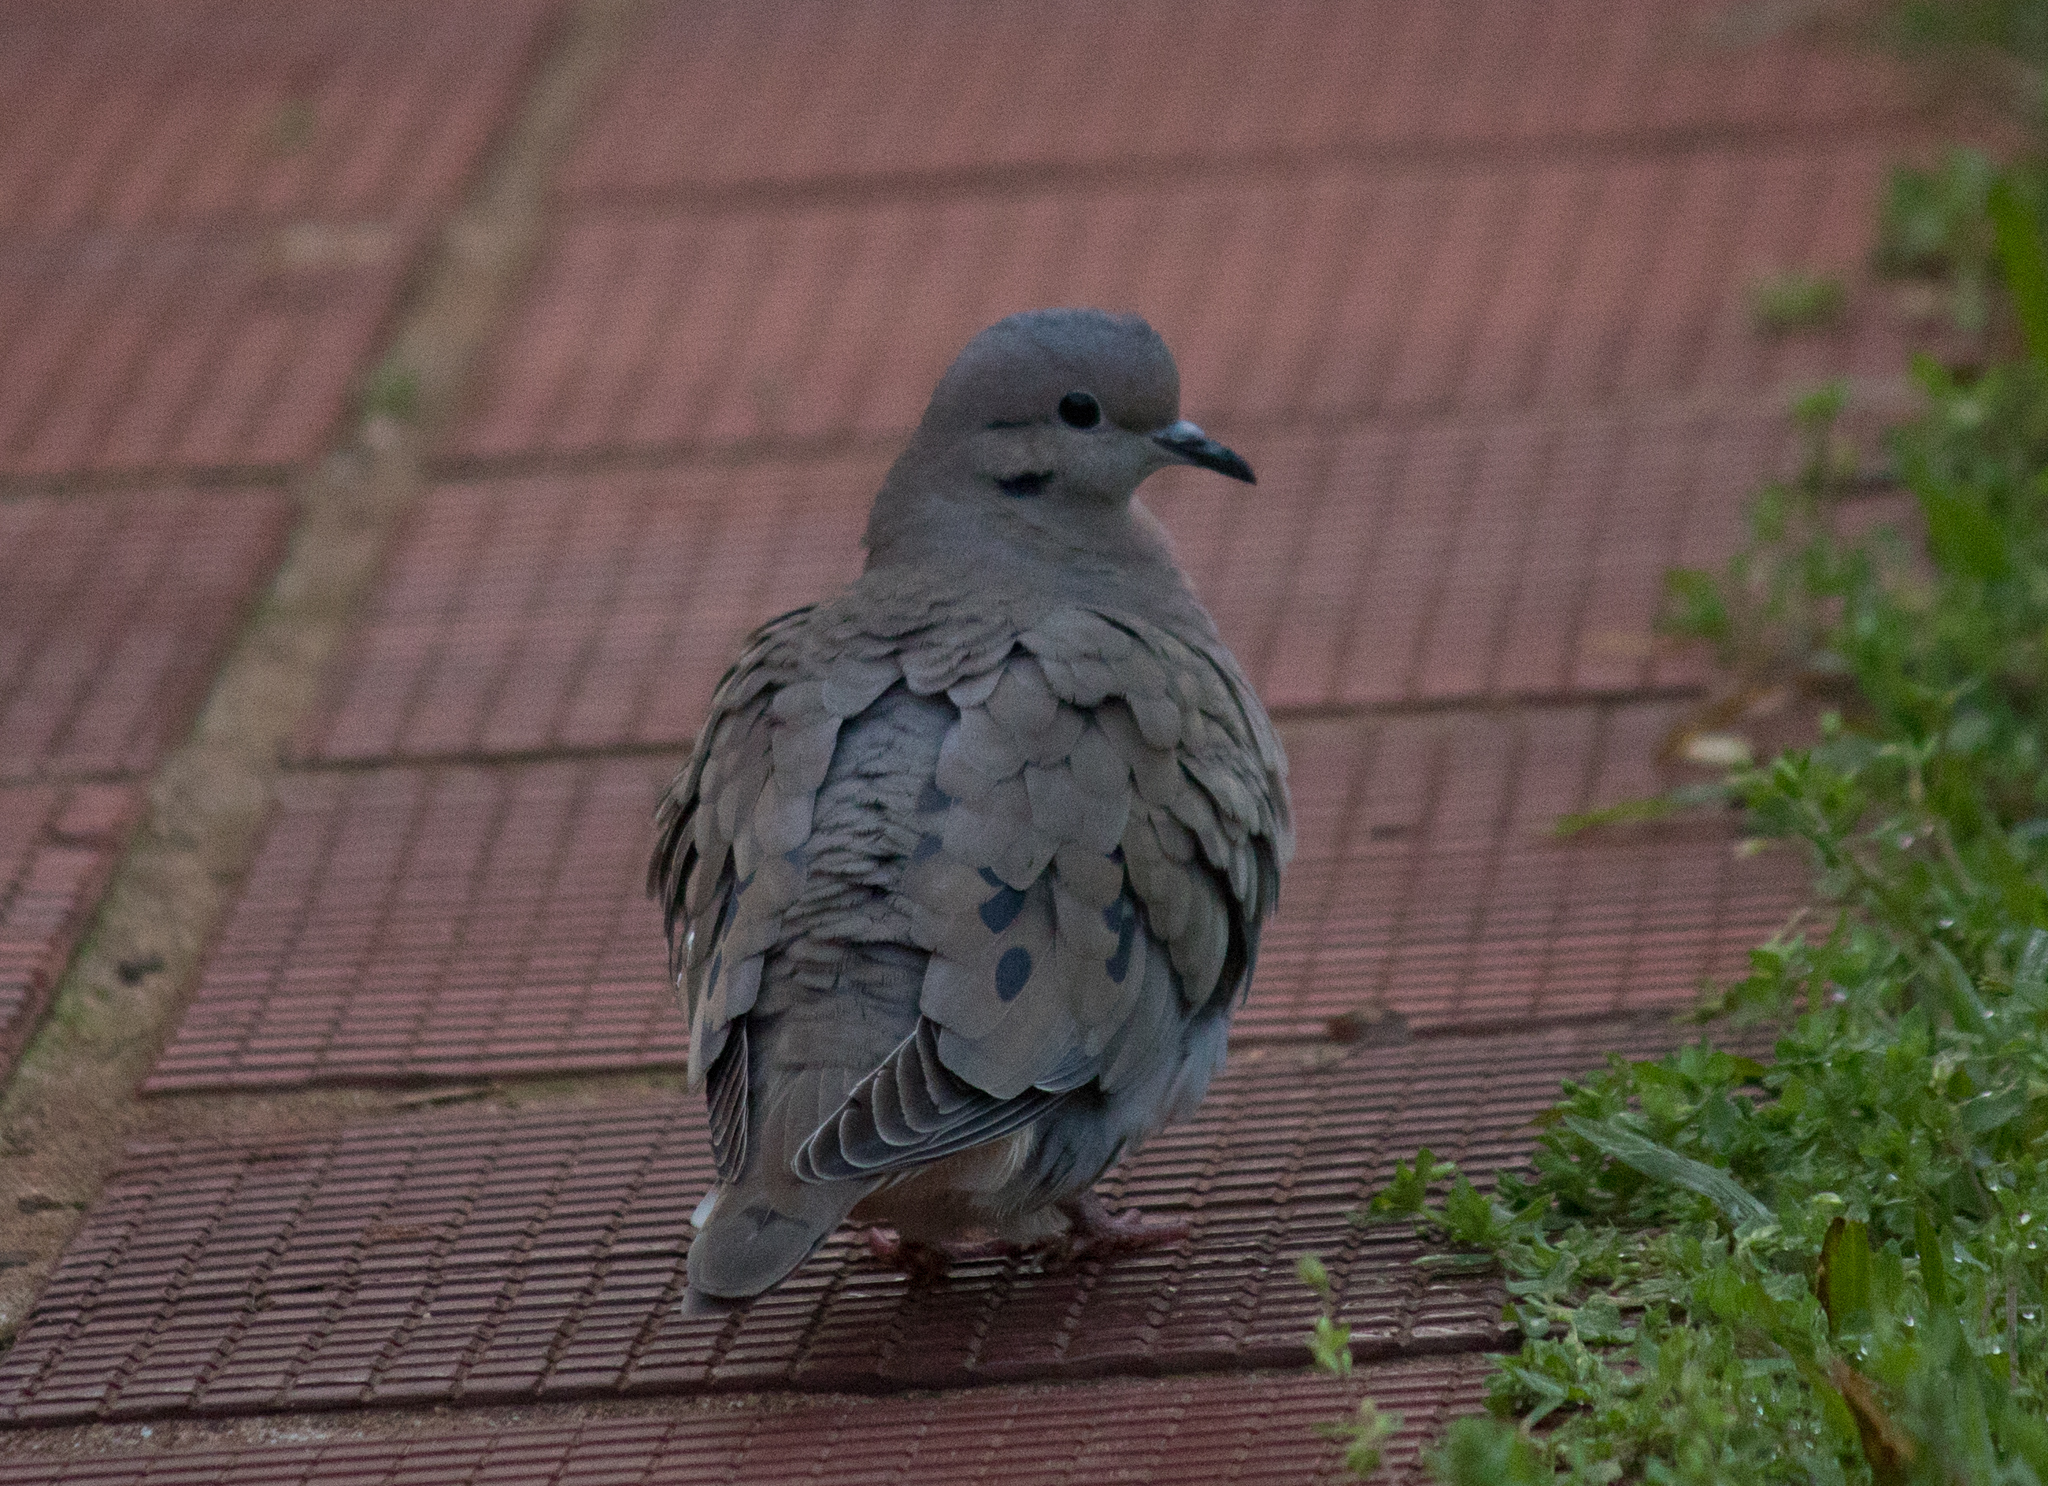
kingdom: Animalia
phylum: Chordata
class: Aves
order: Columbiformes
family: Columbidae
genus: Zenaida
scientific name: Zenaida auriculata
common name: Eared dove
